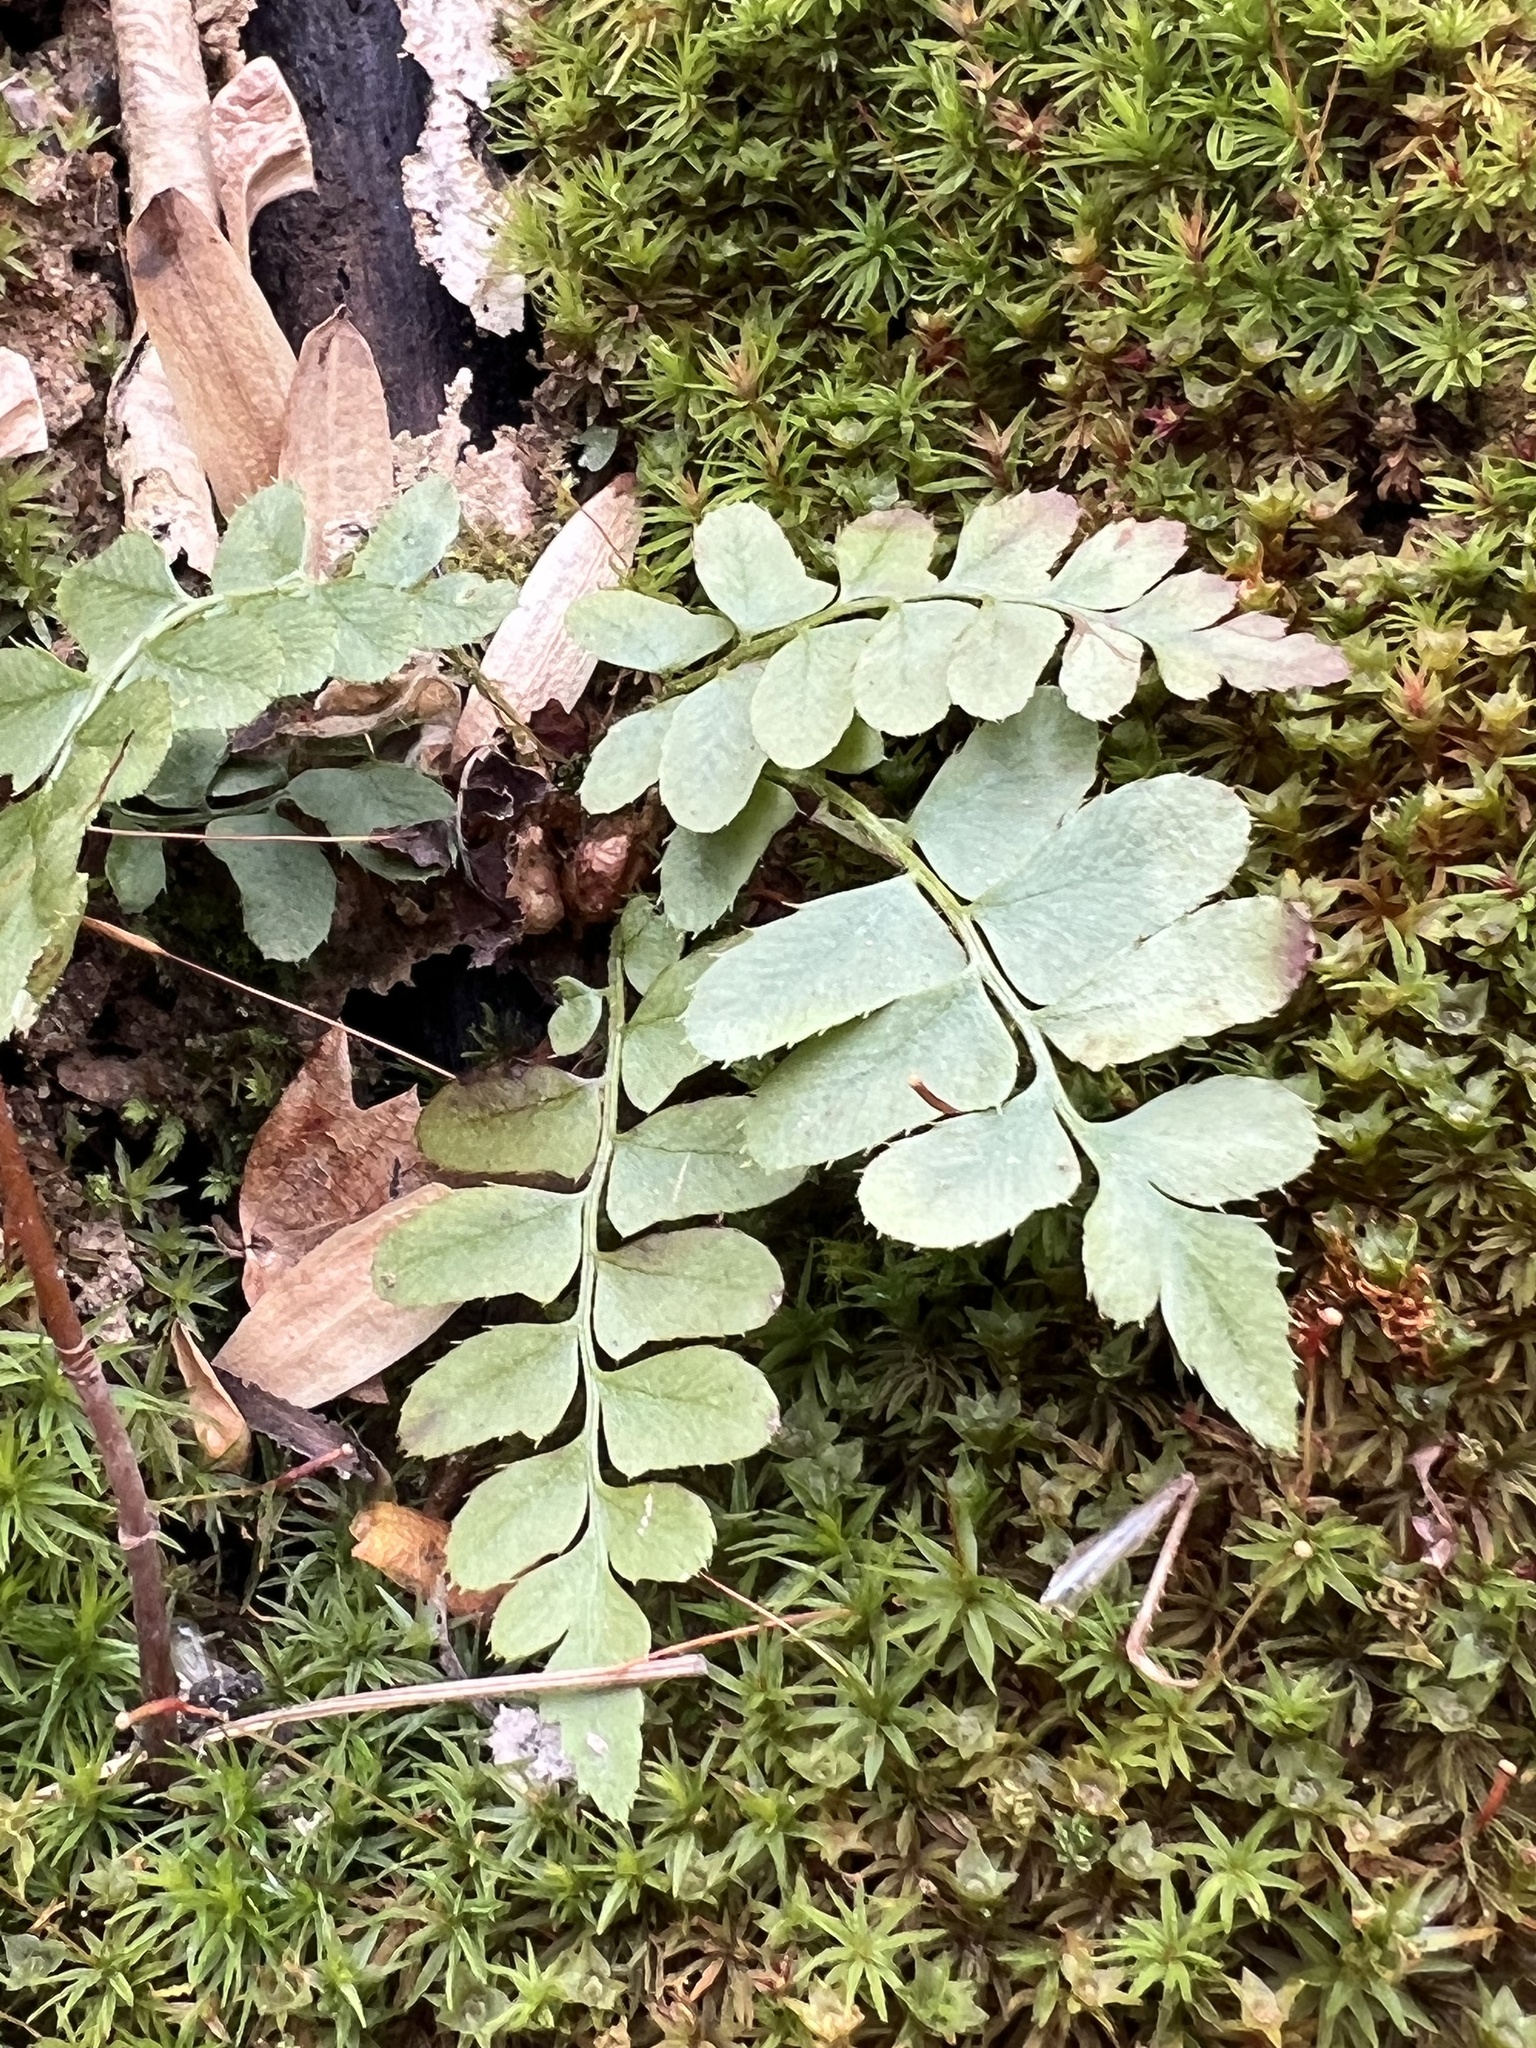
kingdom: Plantae
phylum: Tracheophyta
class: Polypodiopsida
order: Polypodiales
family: Dryopteridaceae
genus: Polystichum
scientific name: Polystichum acrostichoides
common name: Christmas fern
